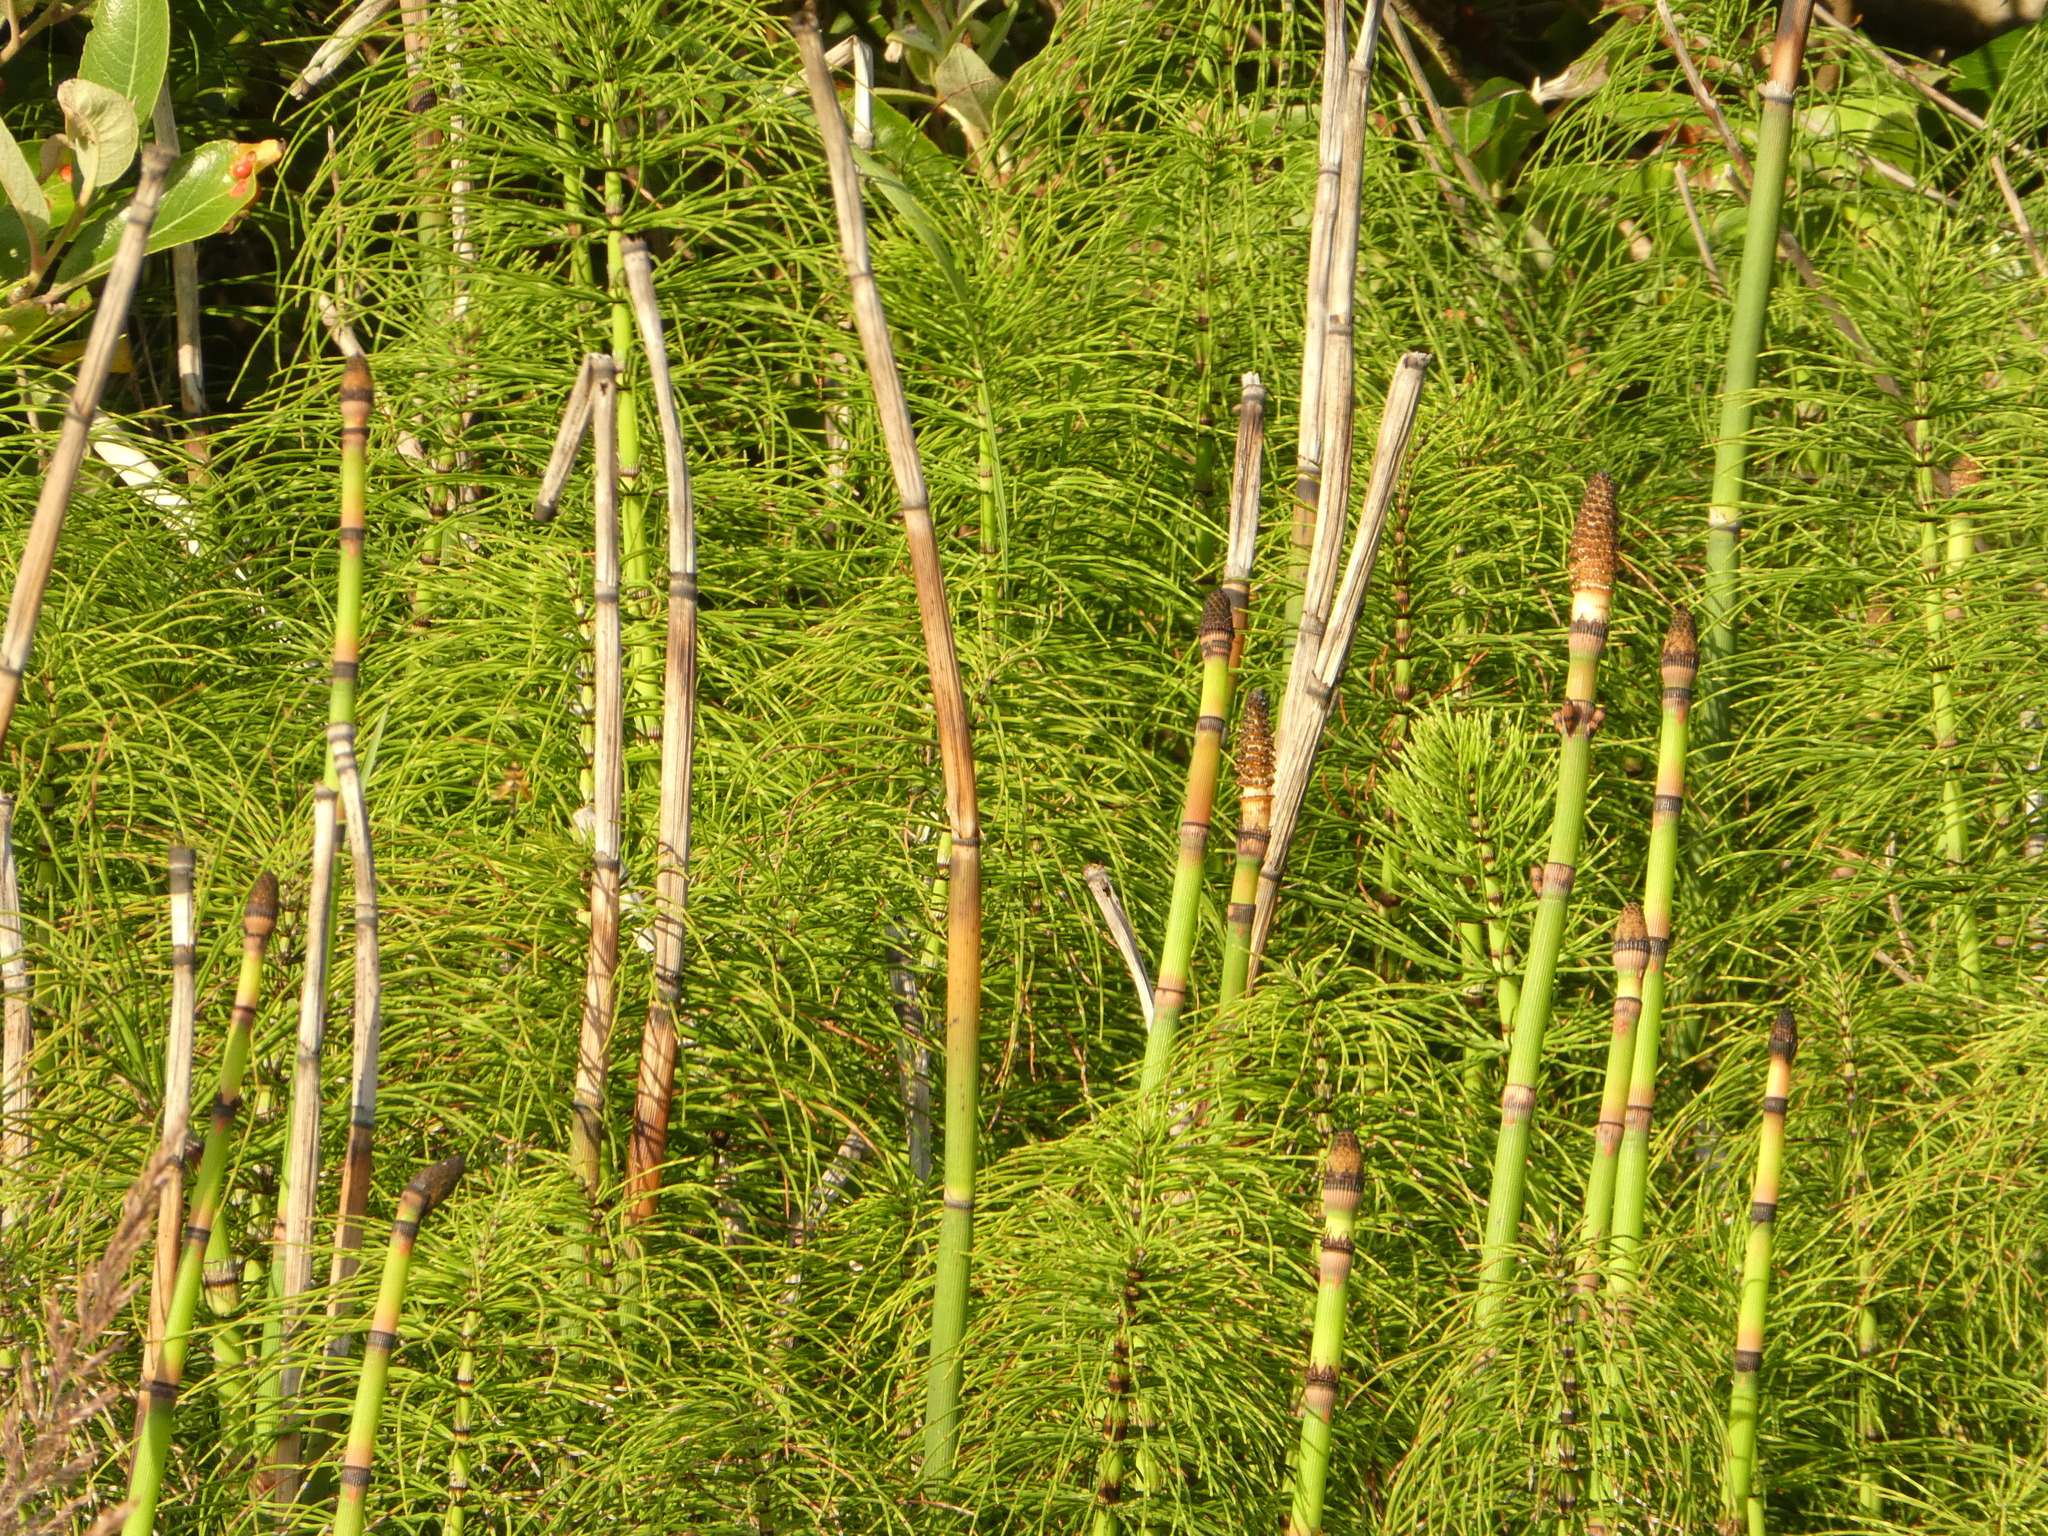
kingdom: Plantae
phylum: Tracheophyta
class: Polypodiopsida
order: Equisetales
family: Equisetaceae
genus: Equisetum
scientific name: Equisetum telmateia
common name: Great horsetail
